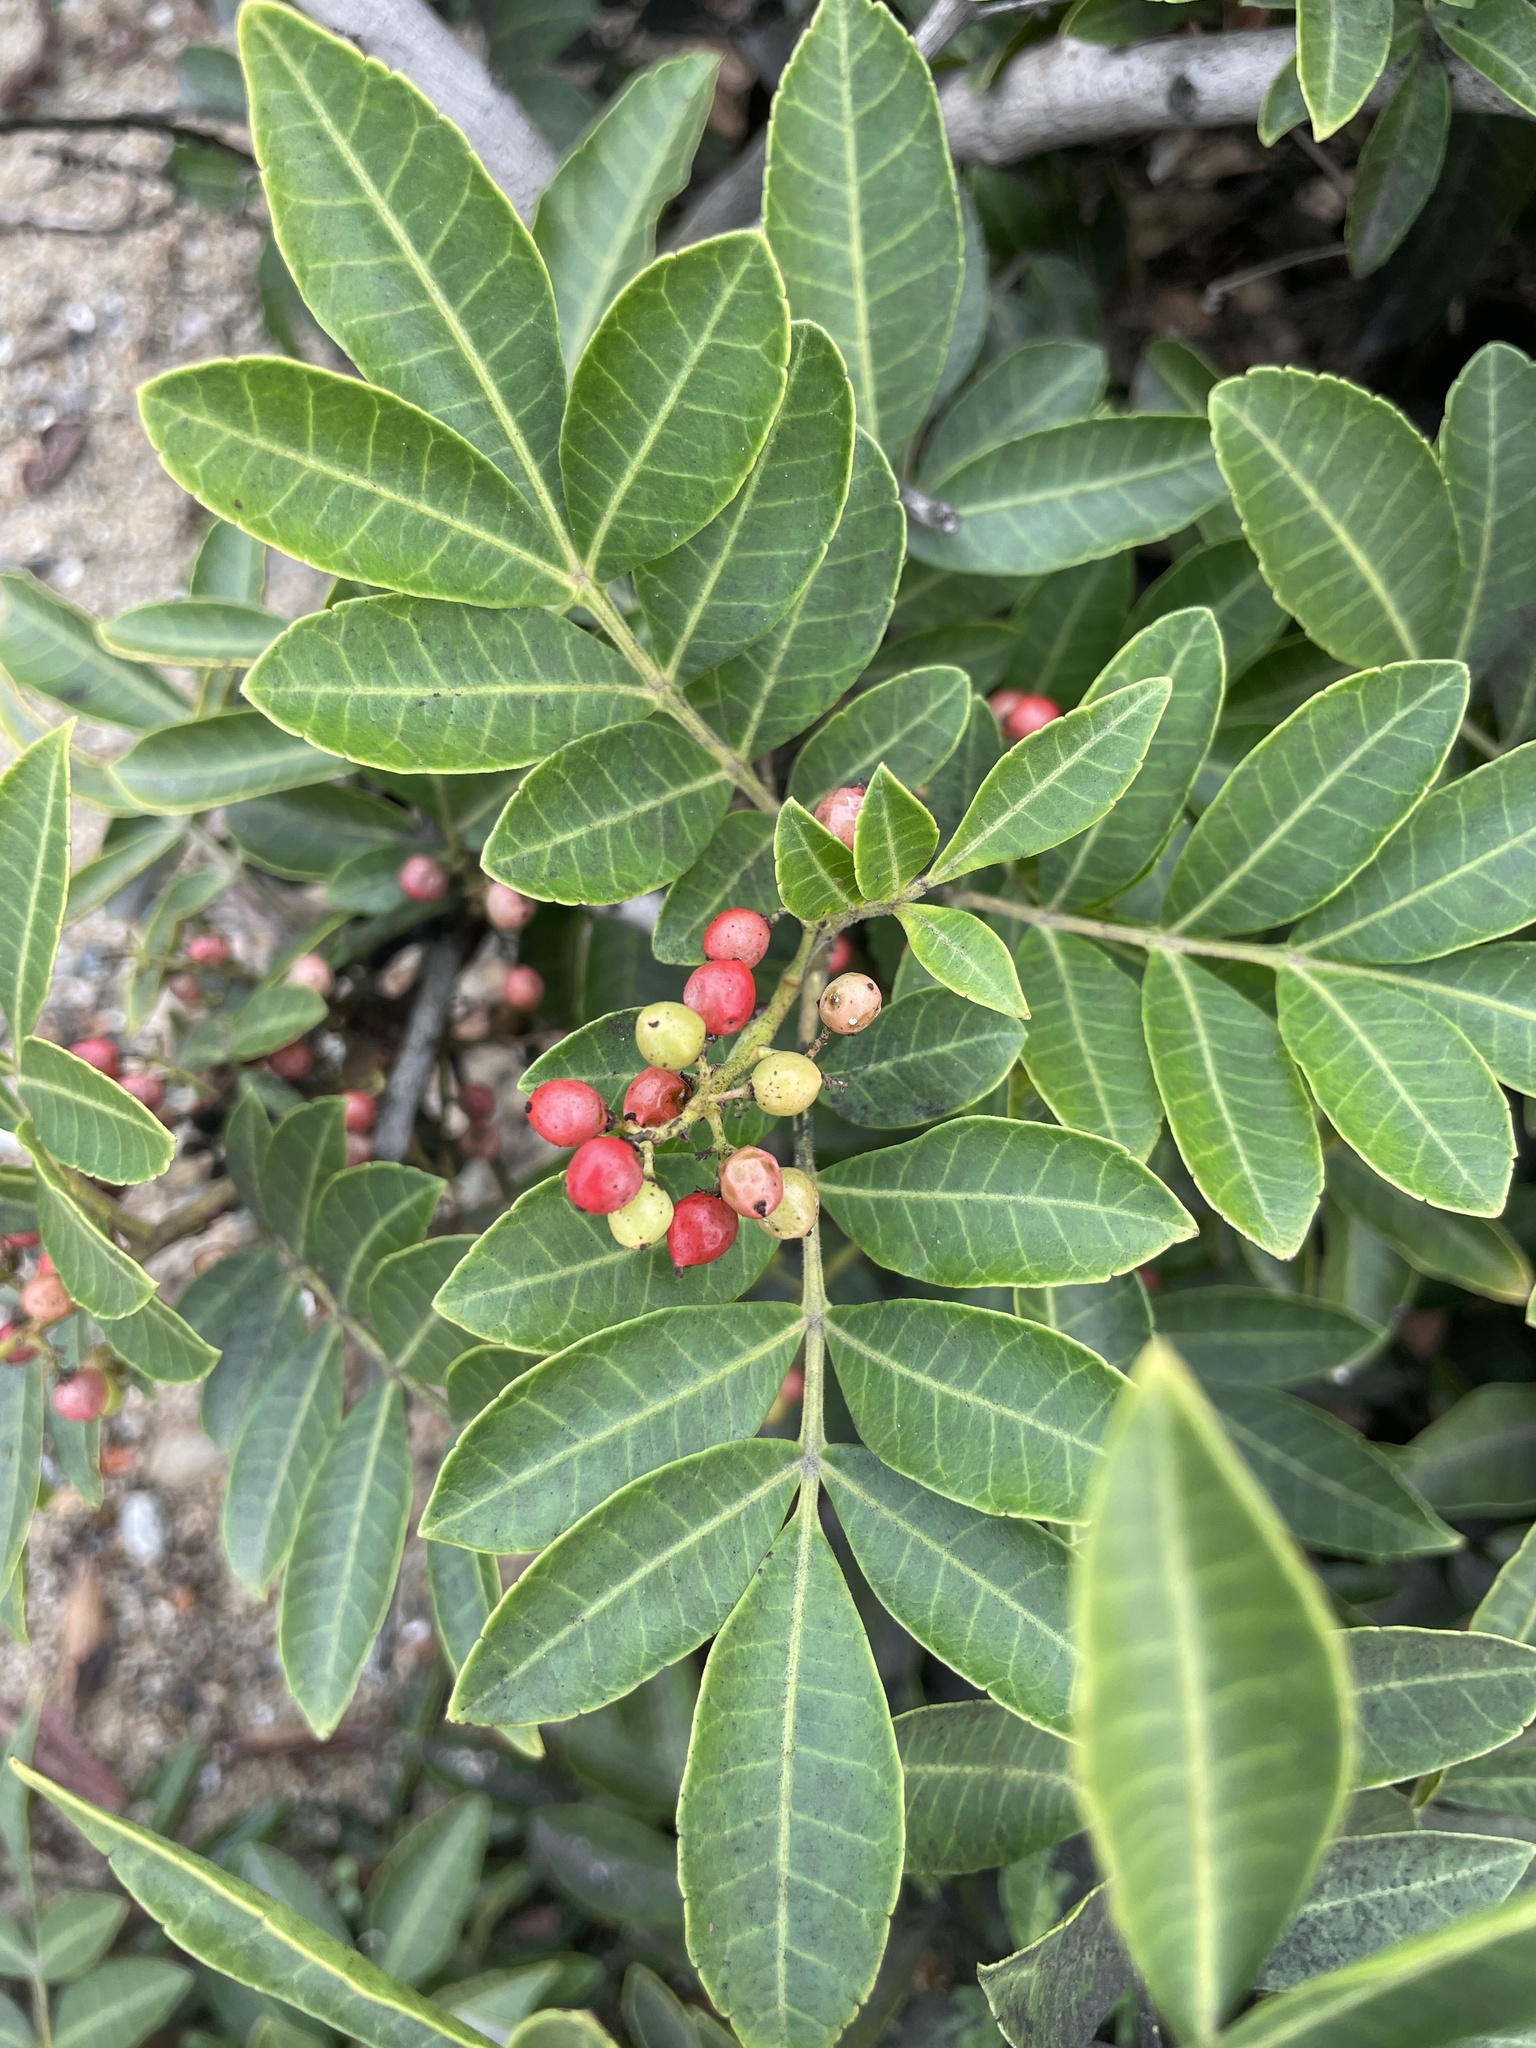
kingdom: Plantae
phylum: Tracheophyta
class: Magnoliopsida
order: Sapindales
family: Anacardiaceae
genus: Schinus
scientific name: Schinus terebinthifolia
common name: Brazilian peppertree
